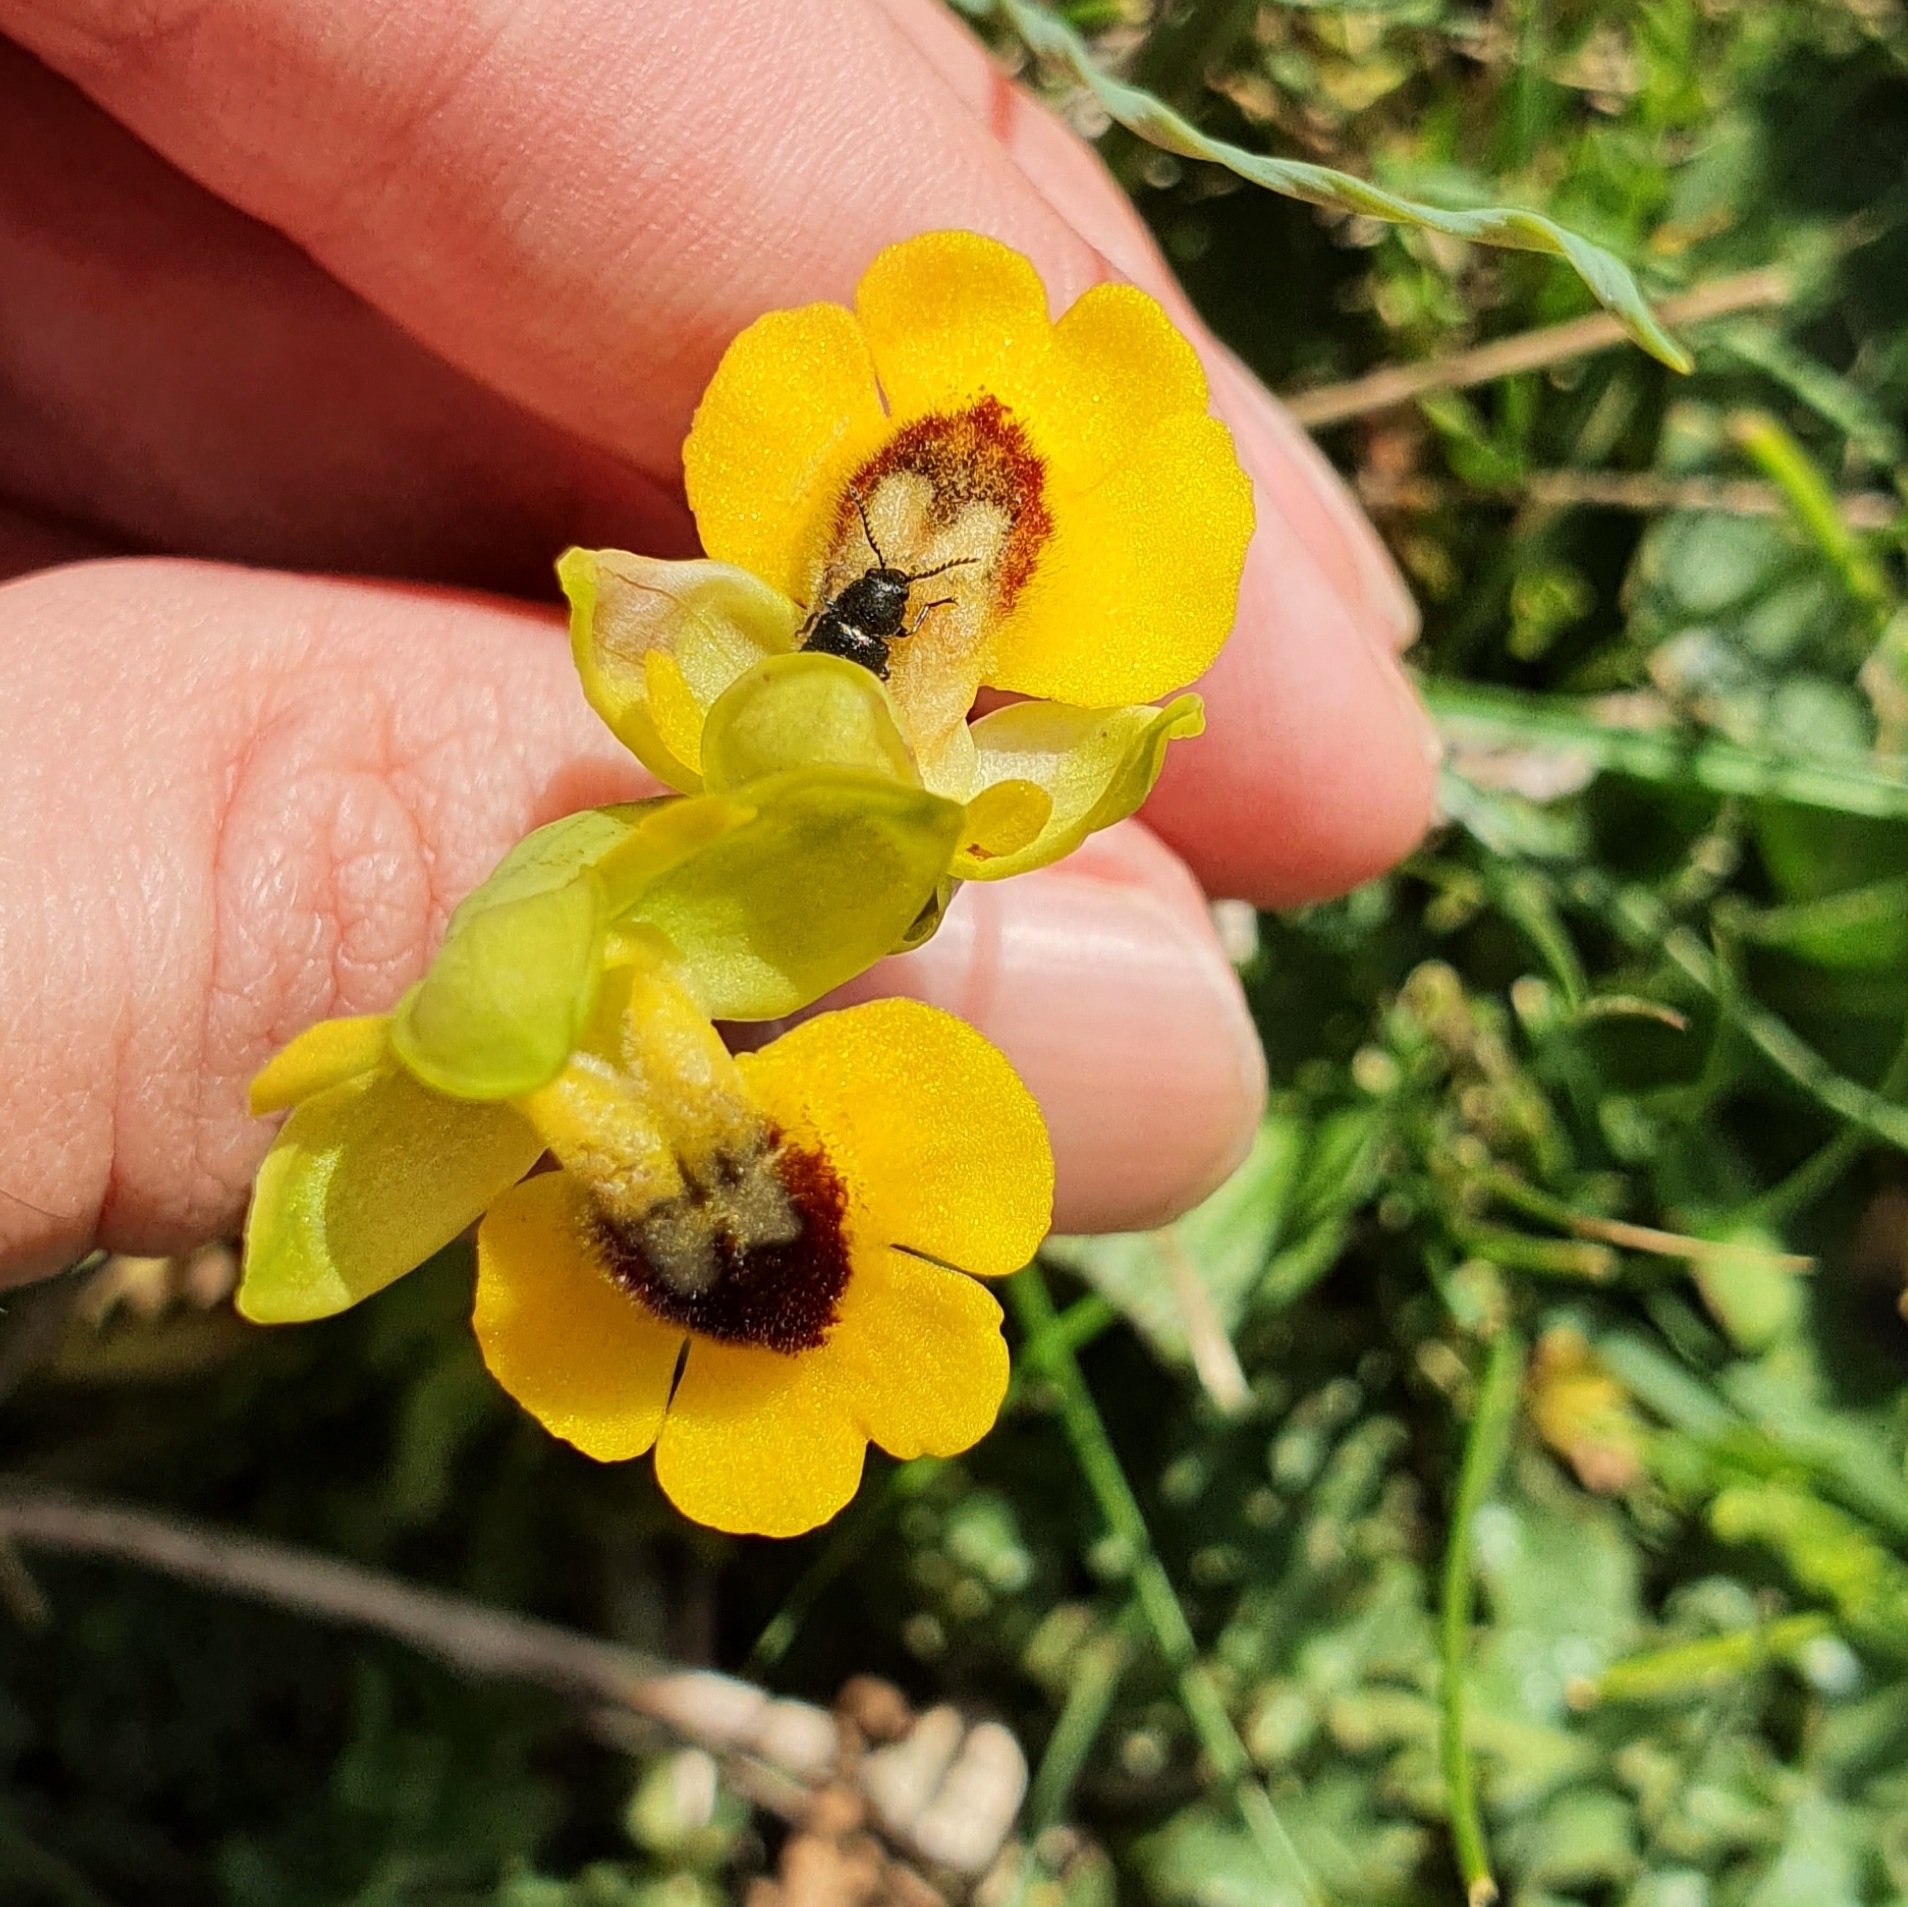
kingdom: Plantae
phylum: Tracheophyta
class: Liliopsida
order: Asparagales
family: Orchidaceae
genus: Ophrys
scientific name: Ophrys lutea
